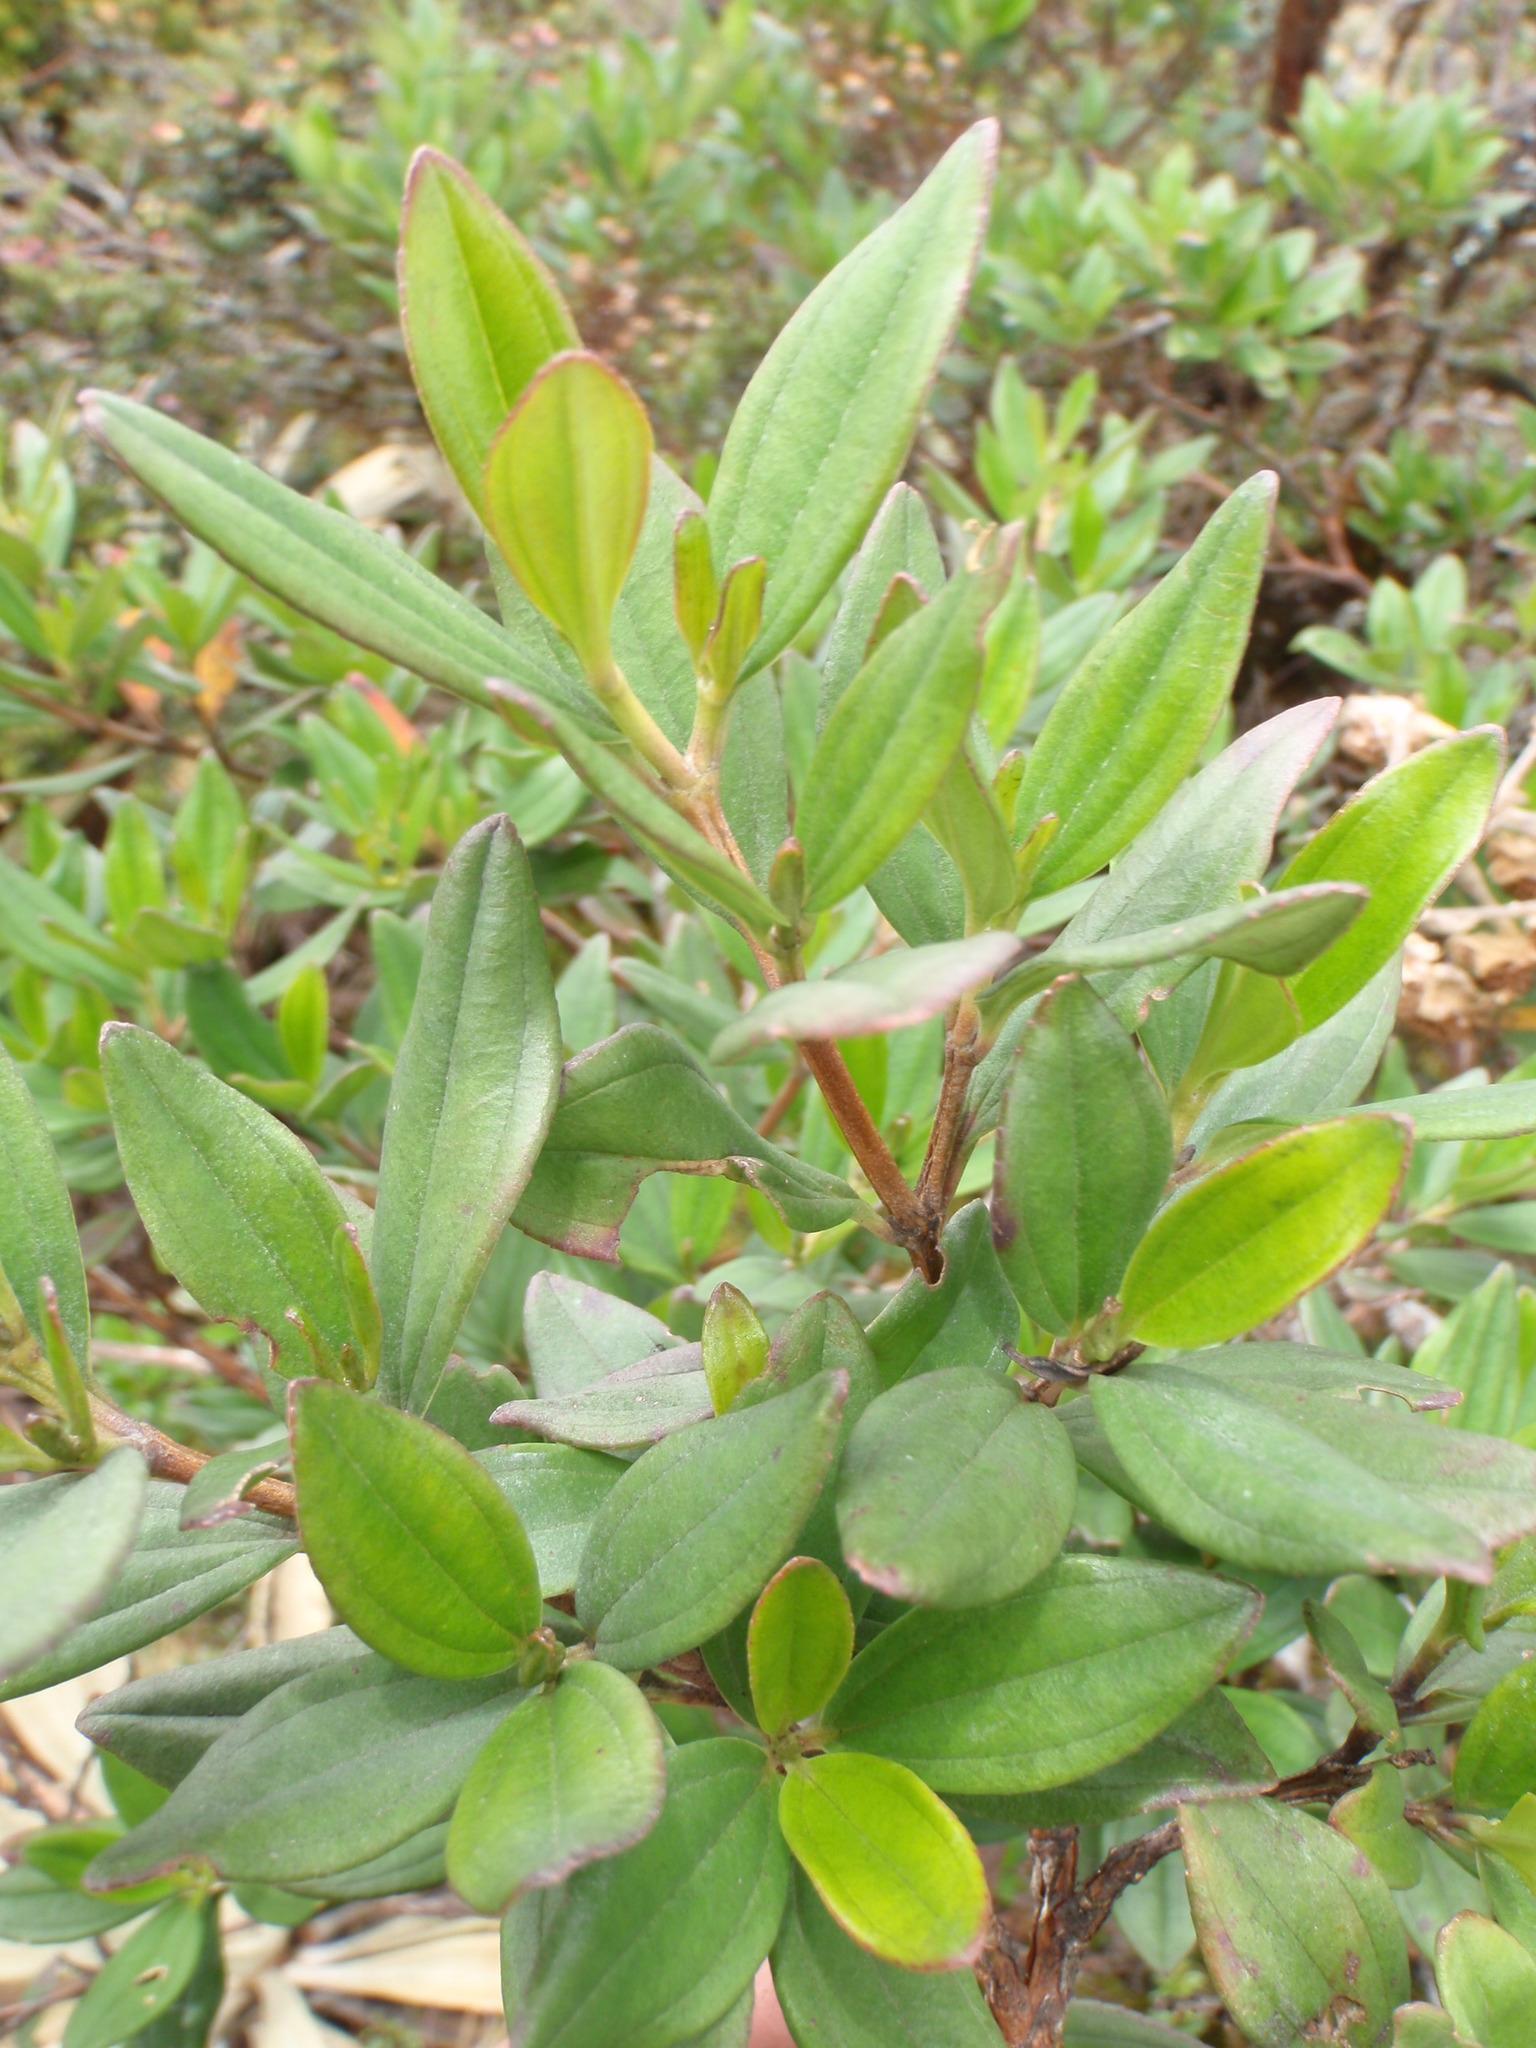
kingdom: Plantae
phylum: Tracheophyta
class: Magnoliopsida
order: Myrtales
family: Melastomataceae
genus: Bucquetia
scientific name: Bucquetia glutinosa
